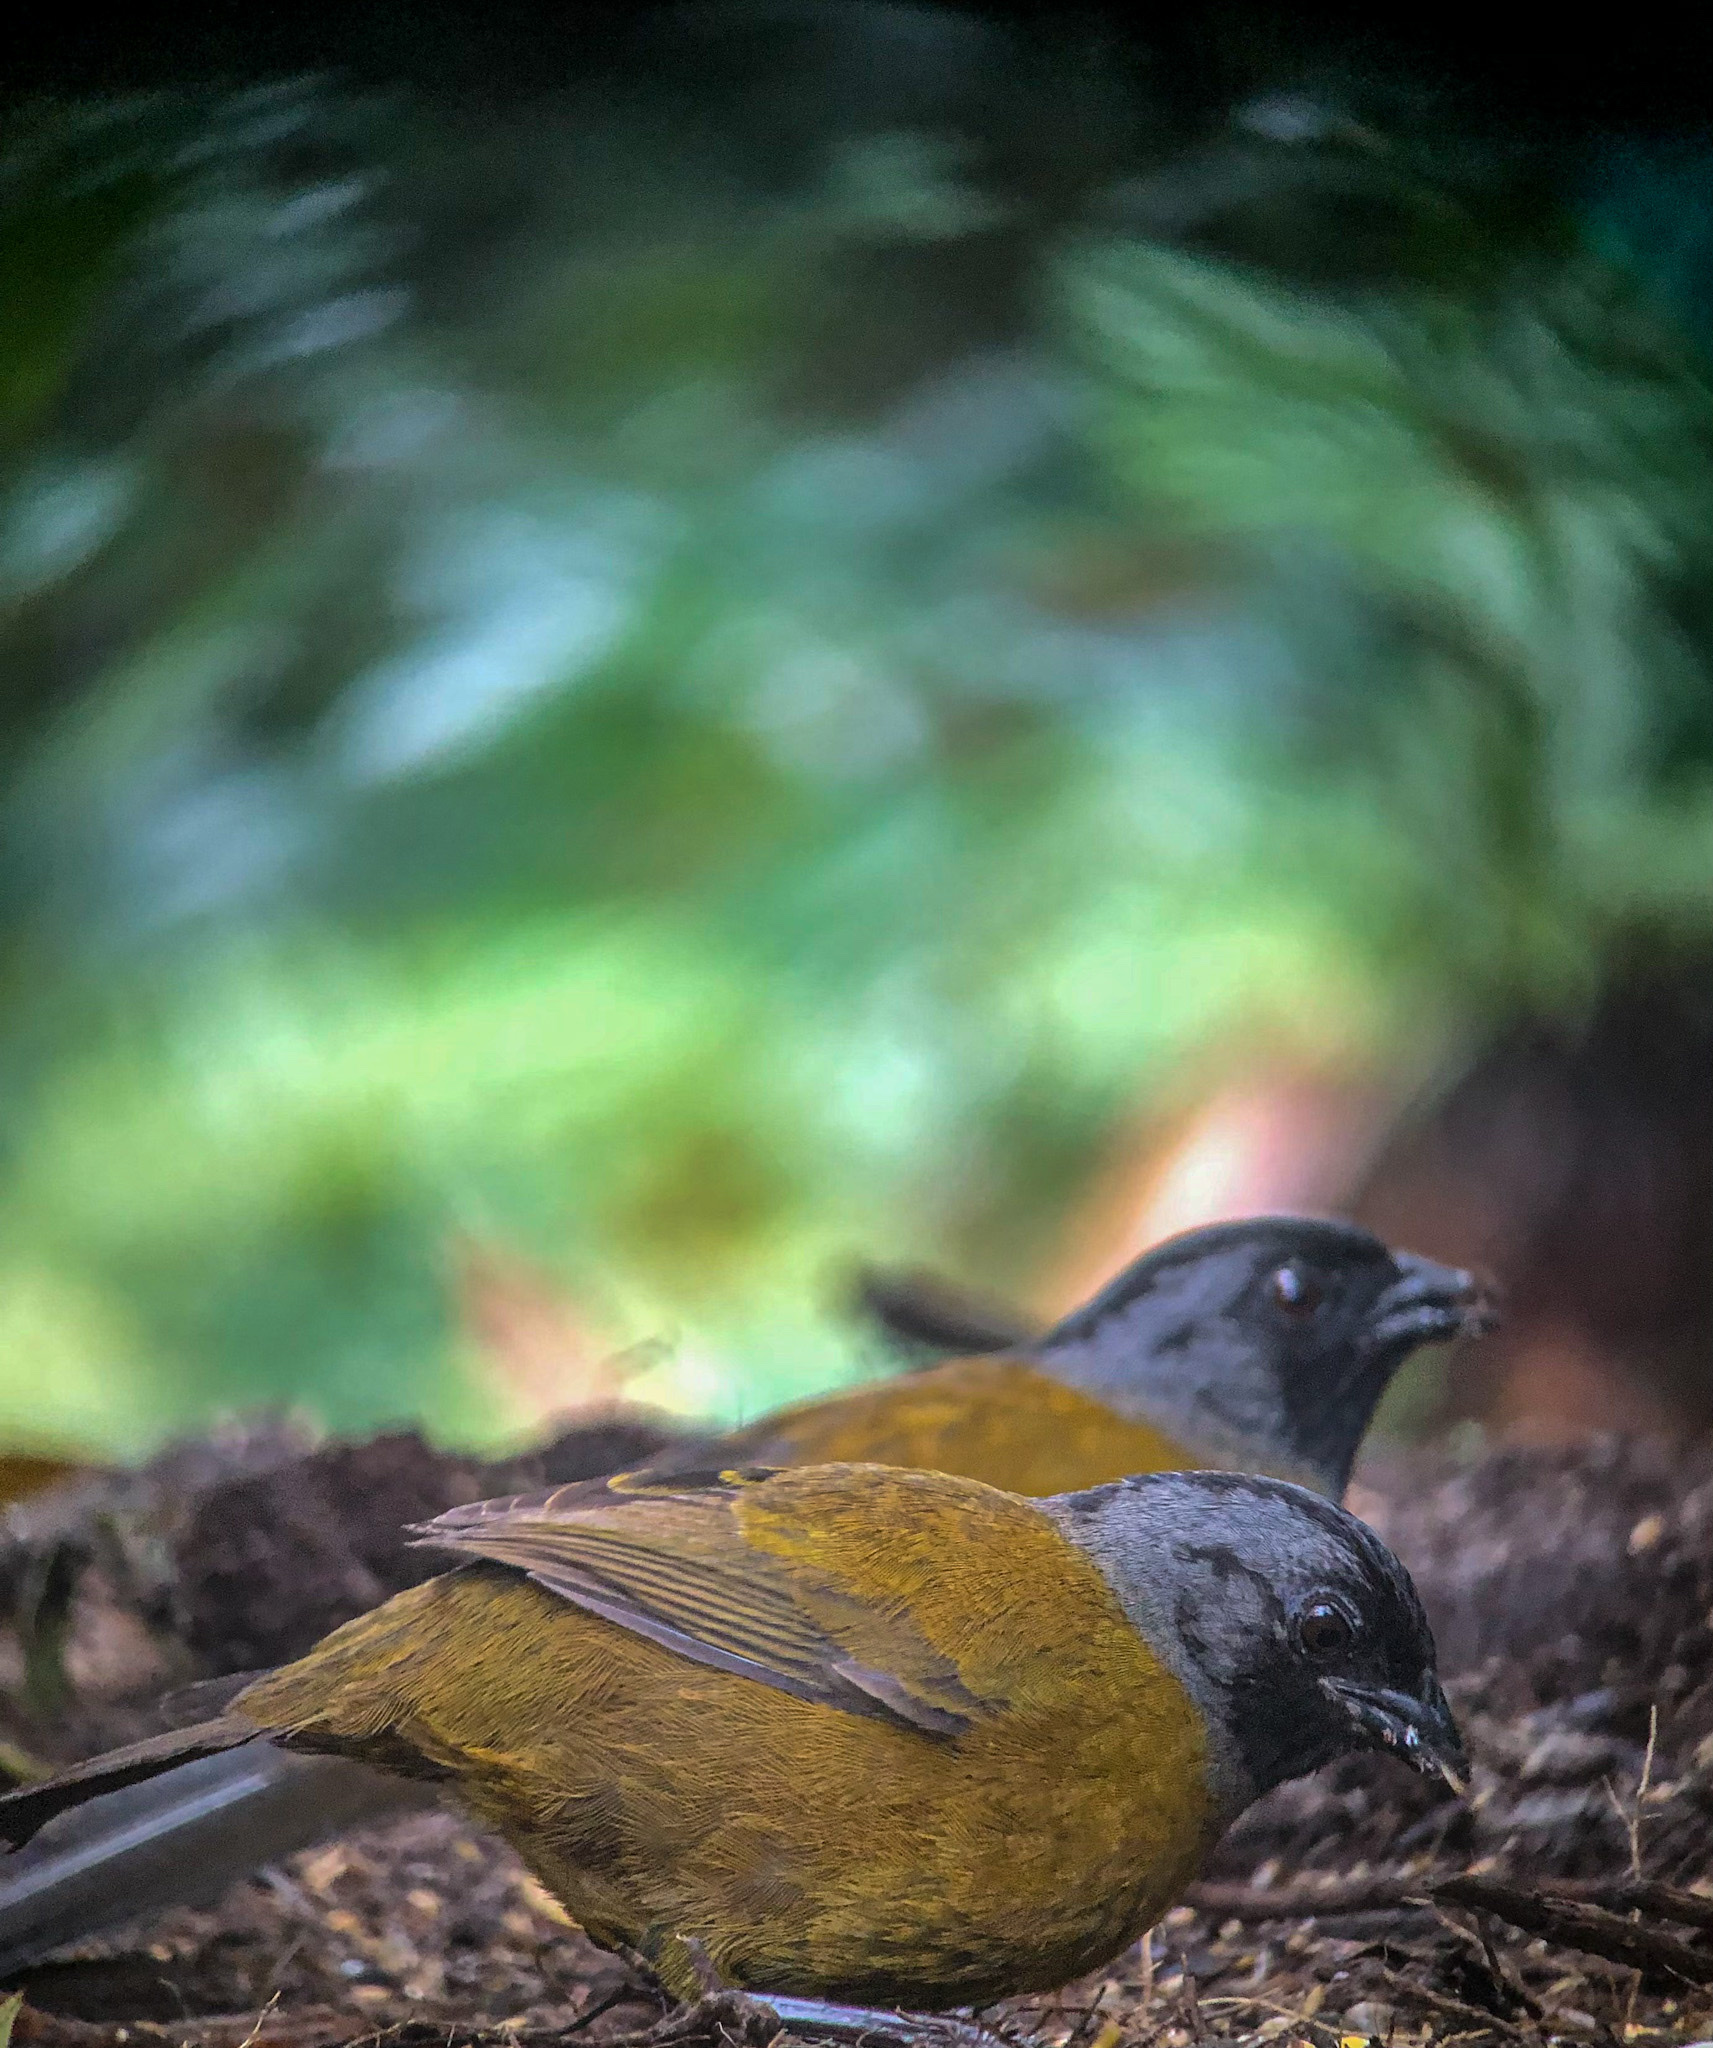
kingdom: Animalia
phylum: Chordata
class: Aves
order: Passeriformes
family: Passerellidae
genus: Pezopetes
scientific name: Pezopetes capitalis
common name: Large-footed finch
